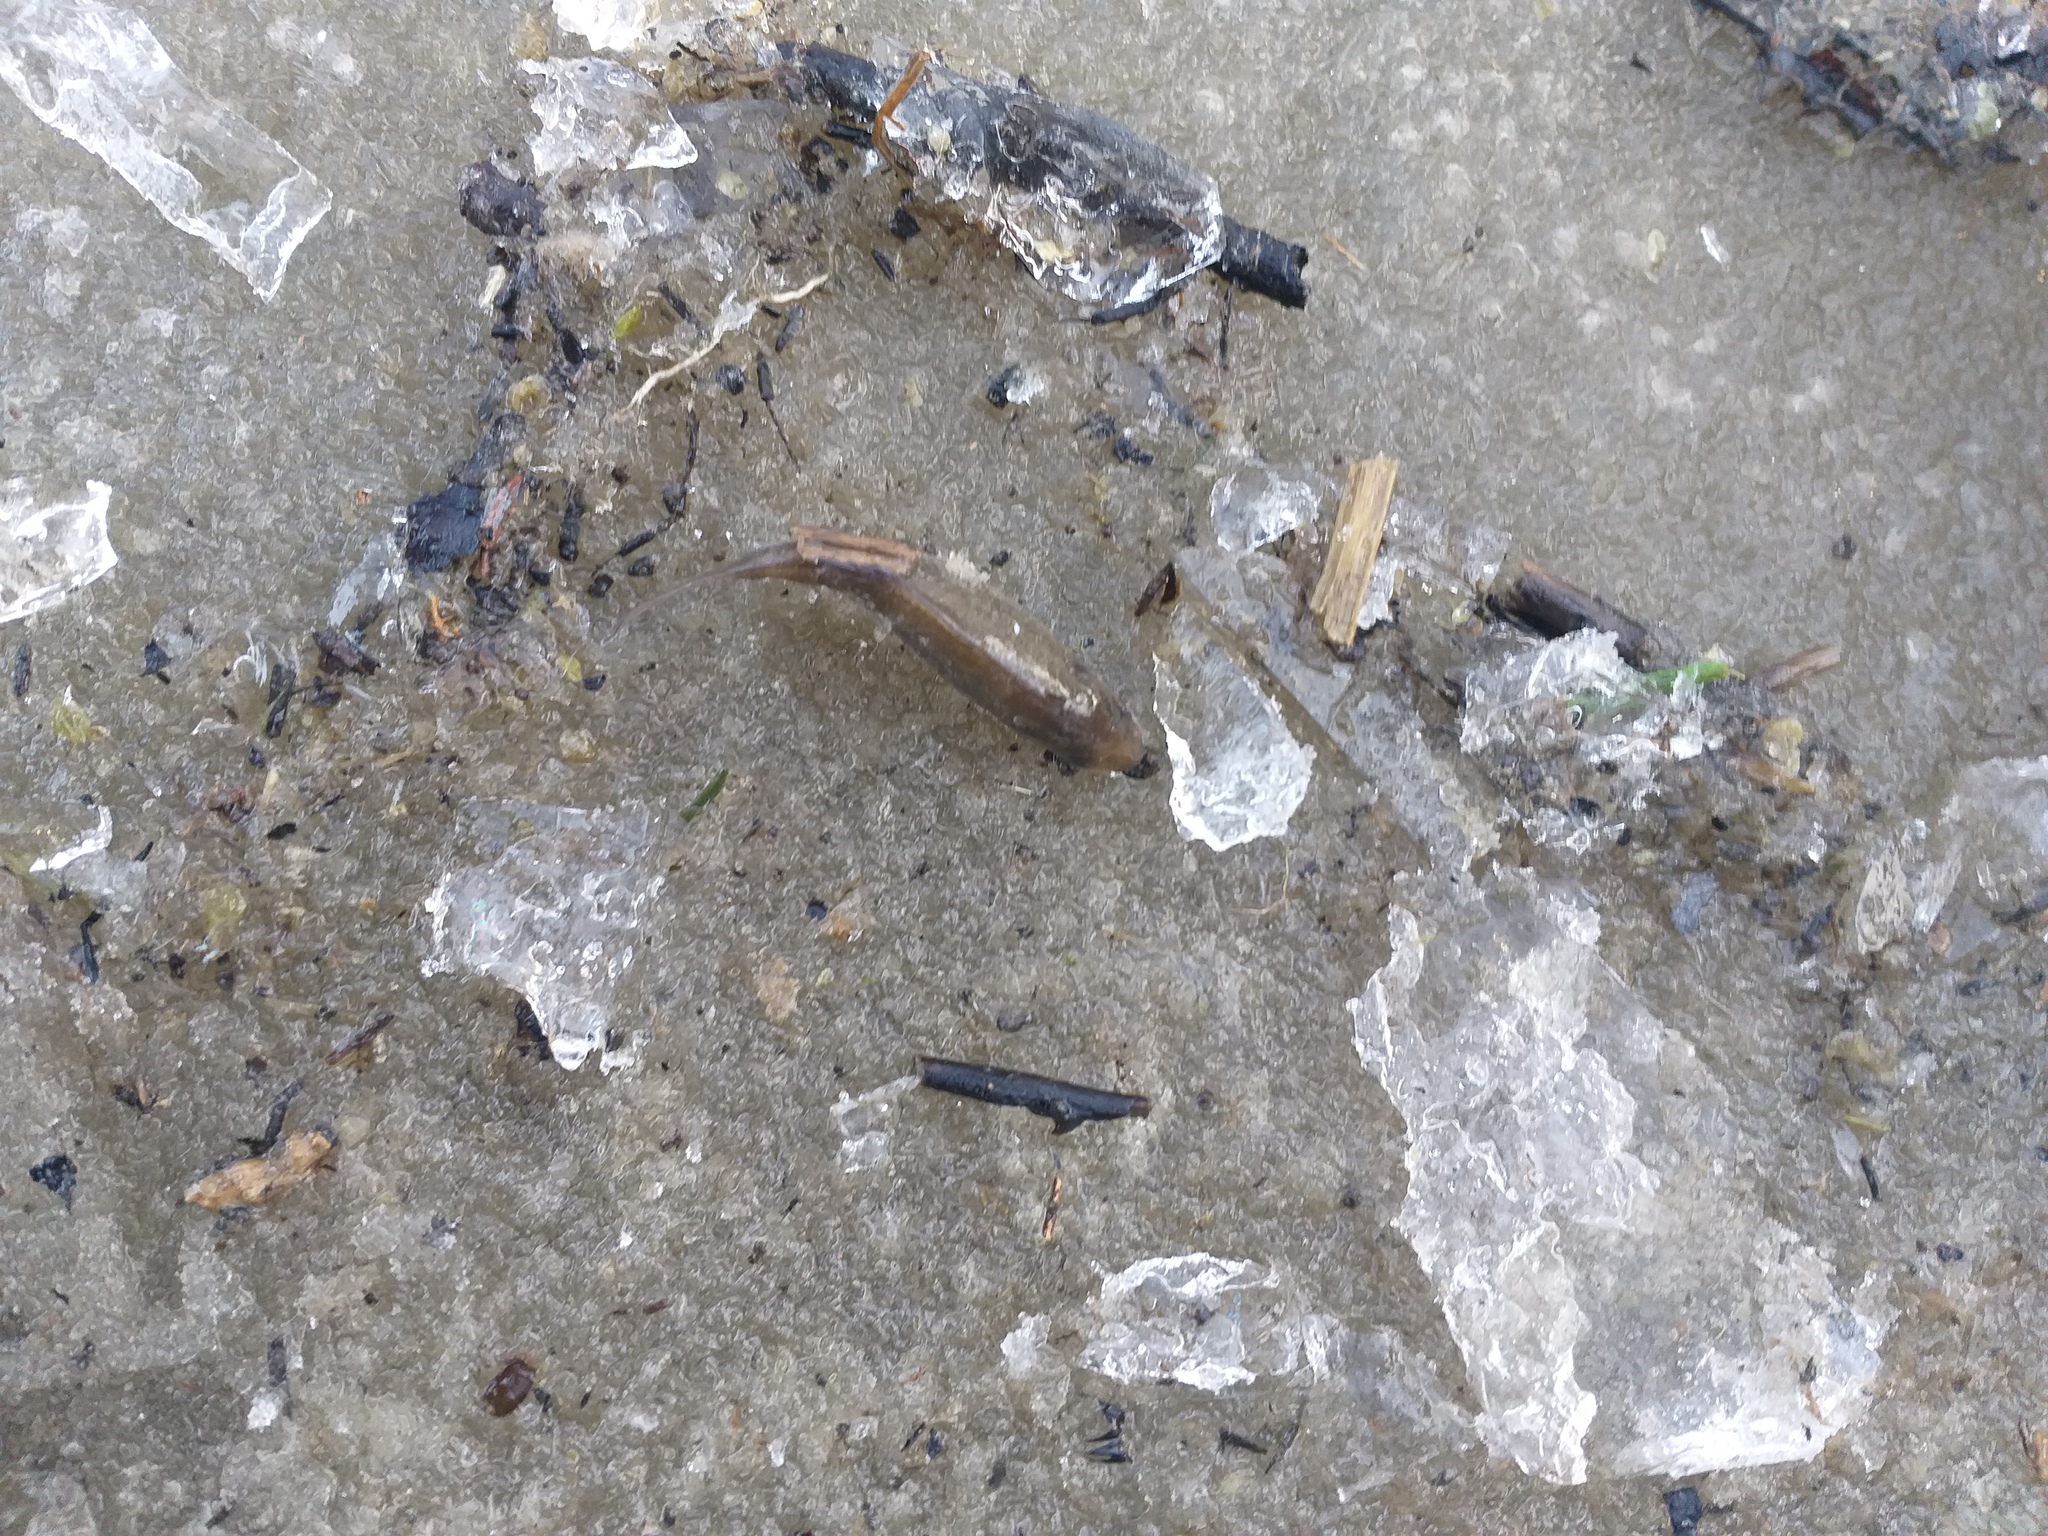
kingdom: Animalia
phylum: Chordata
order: Cypriniformes
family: Cyprinidae
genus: Carassius
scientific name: Carassius gibelio
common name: Prussian carp
